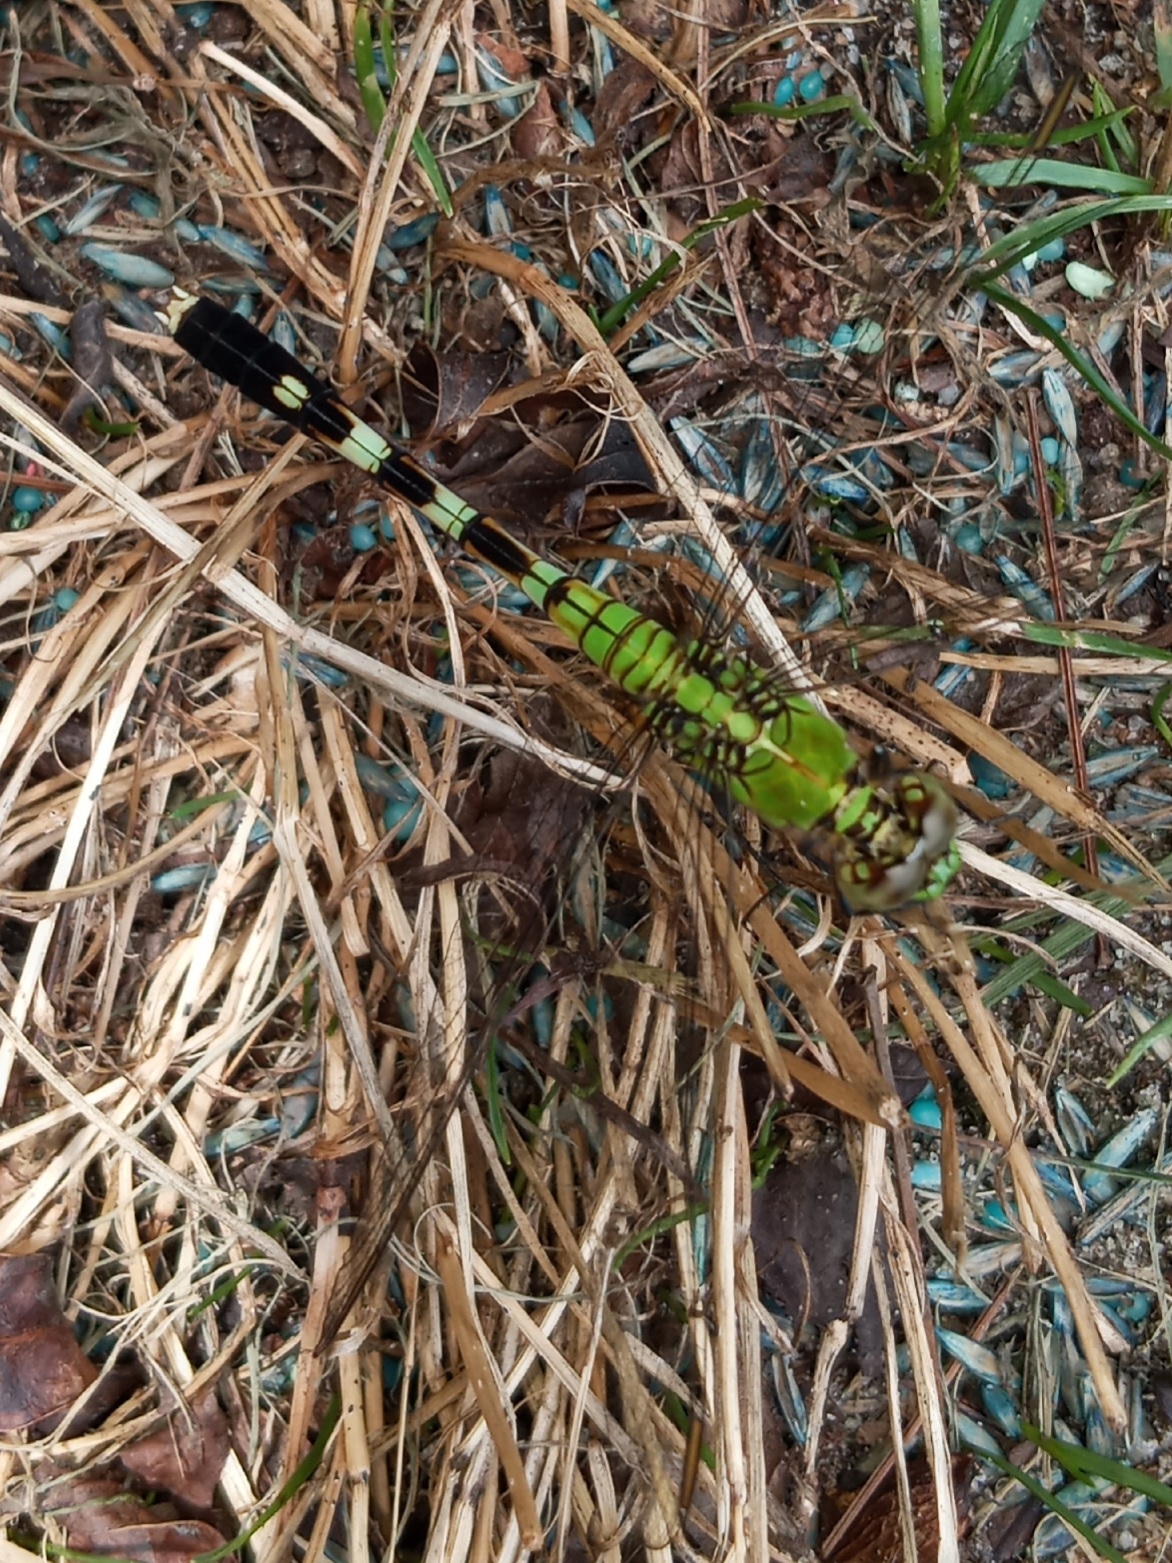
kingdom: Animalia
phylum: Arthropoda
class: Insecta
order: Odonata
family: Libellulidae
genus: Erythemis
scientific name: Erythemis simplicicollis
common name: Eastern pondhawk
